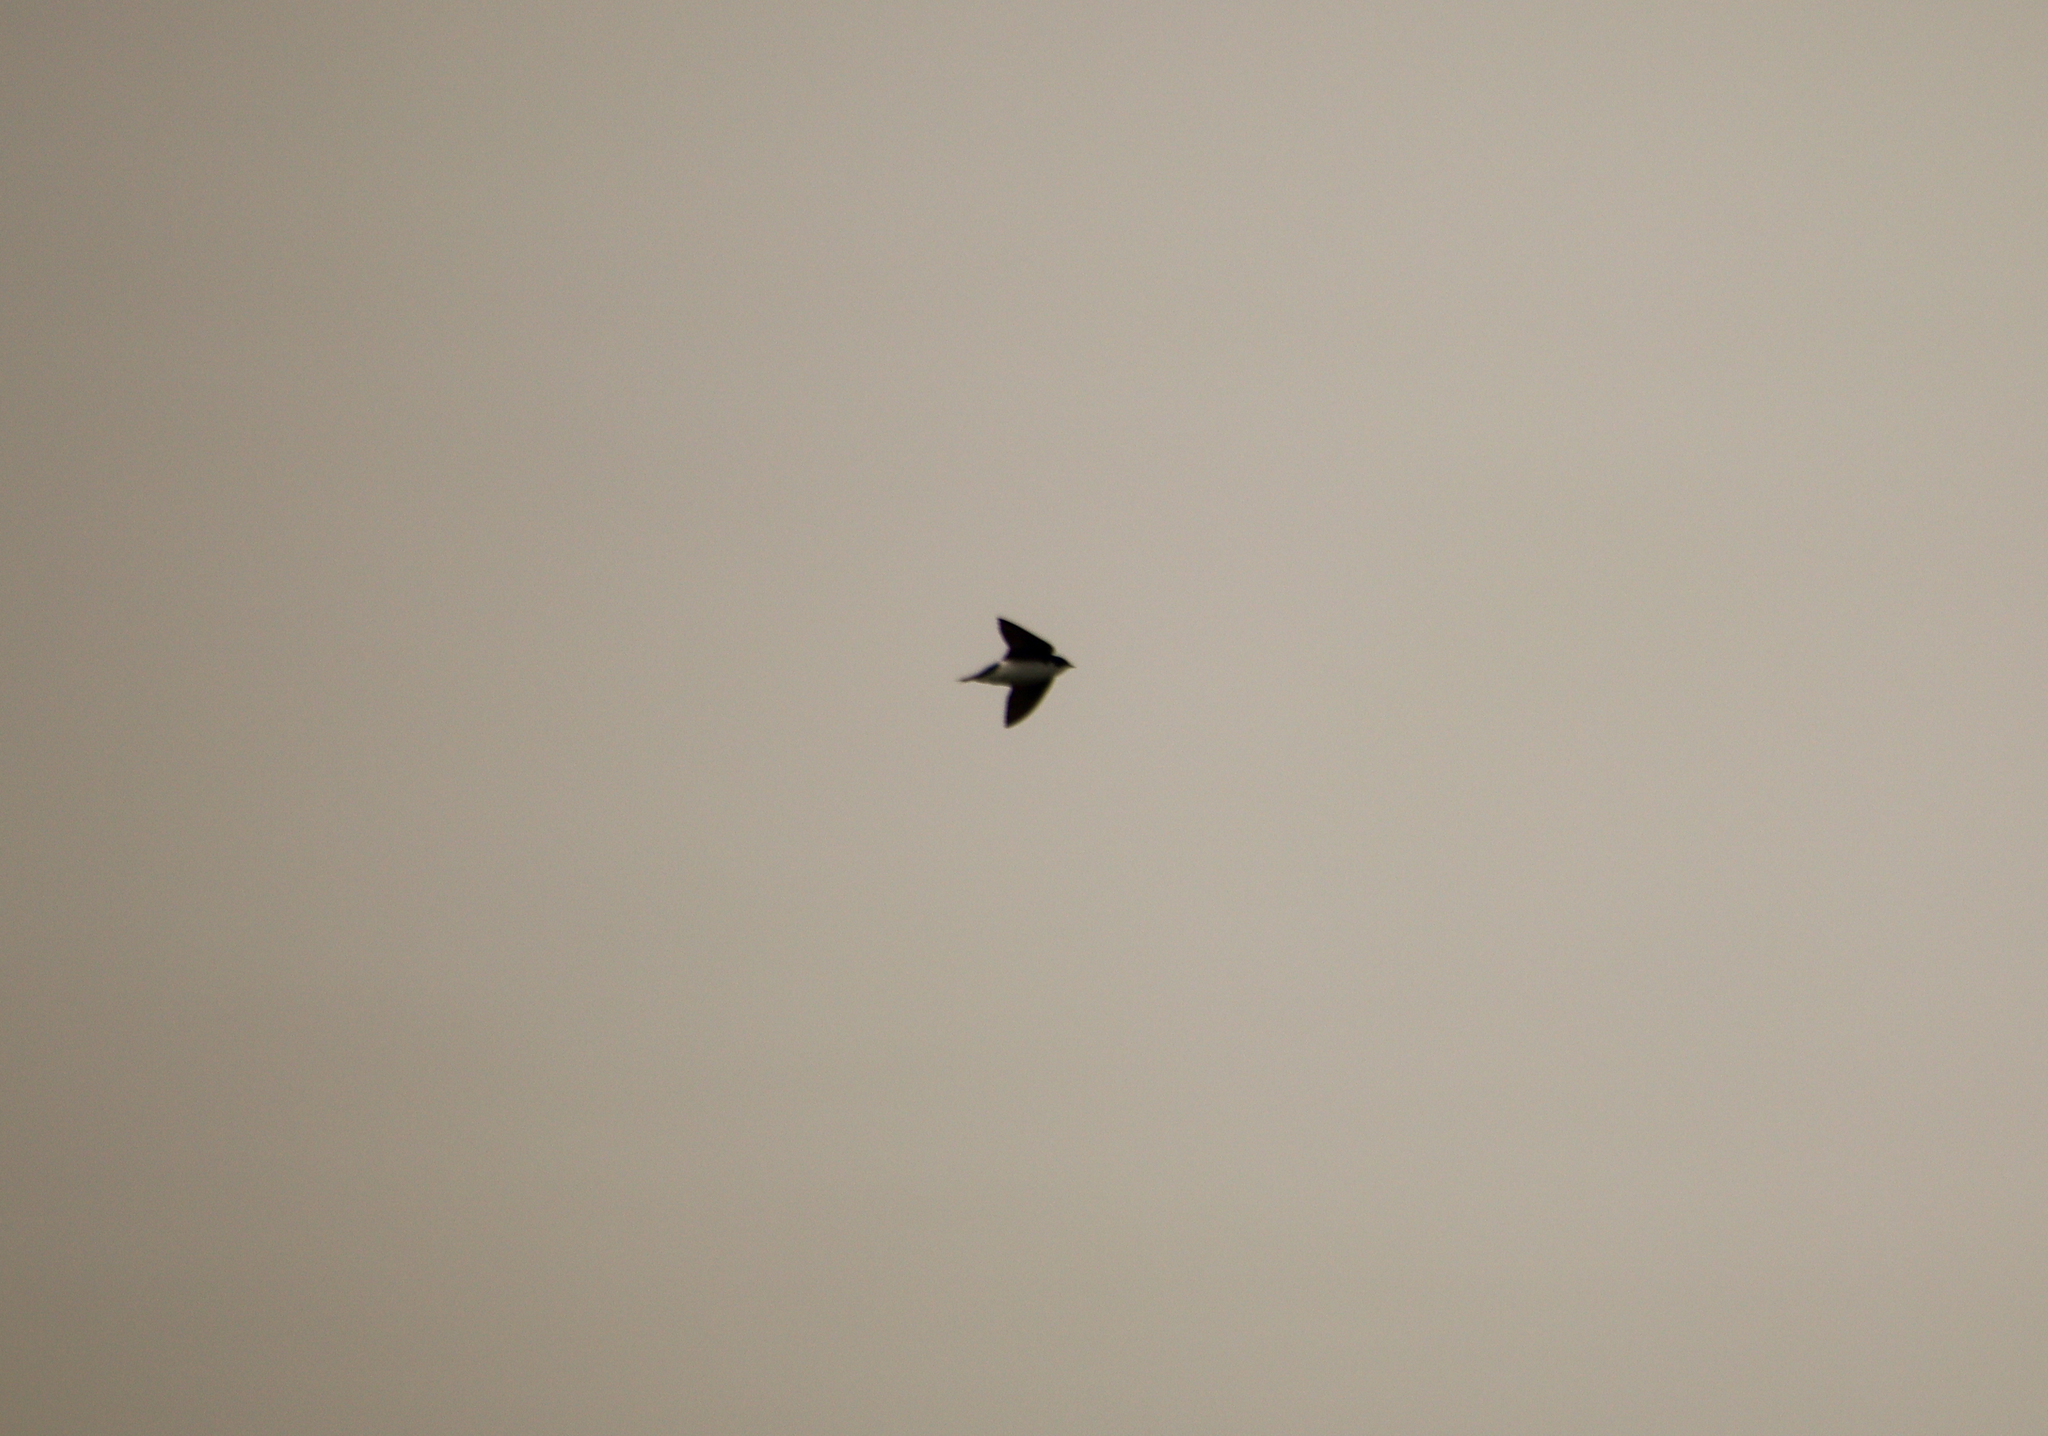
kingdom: Animalia
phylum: Chordata
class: Aves
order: Passeriformes
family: Hirundinidae
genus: Tachycineta
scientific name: Tachycineta bicolor
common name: Tree swallow
